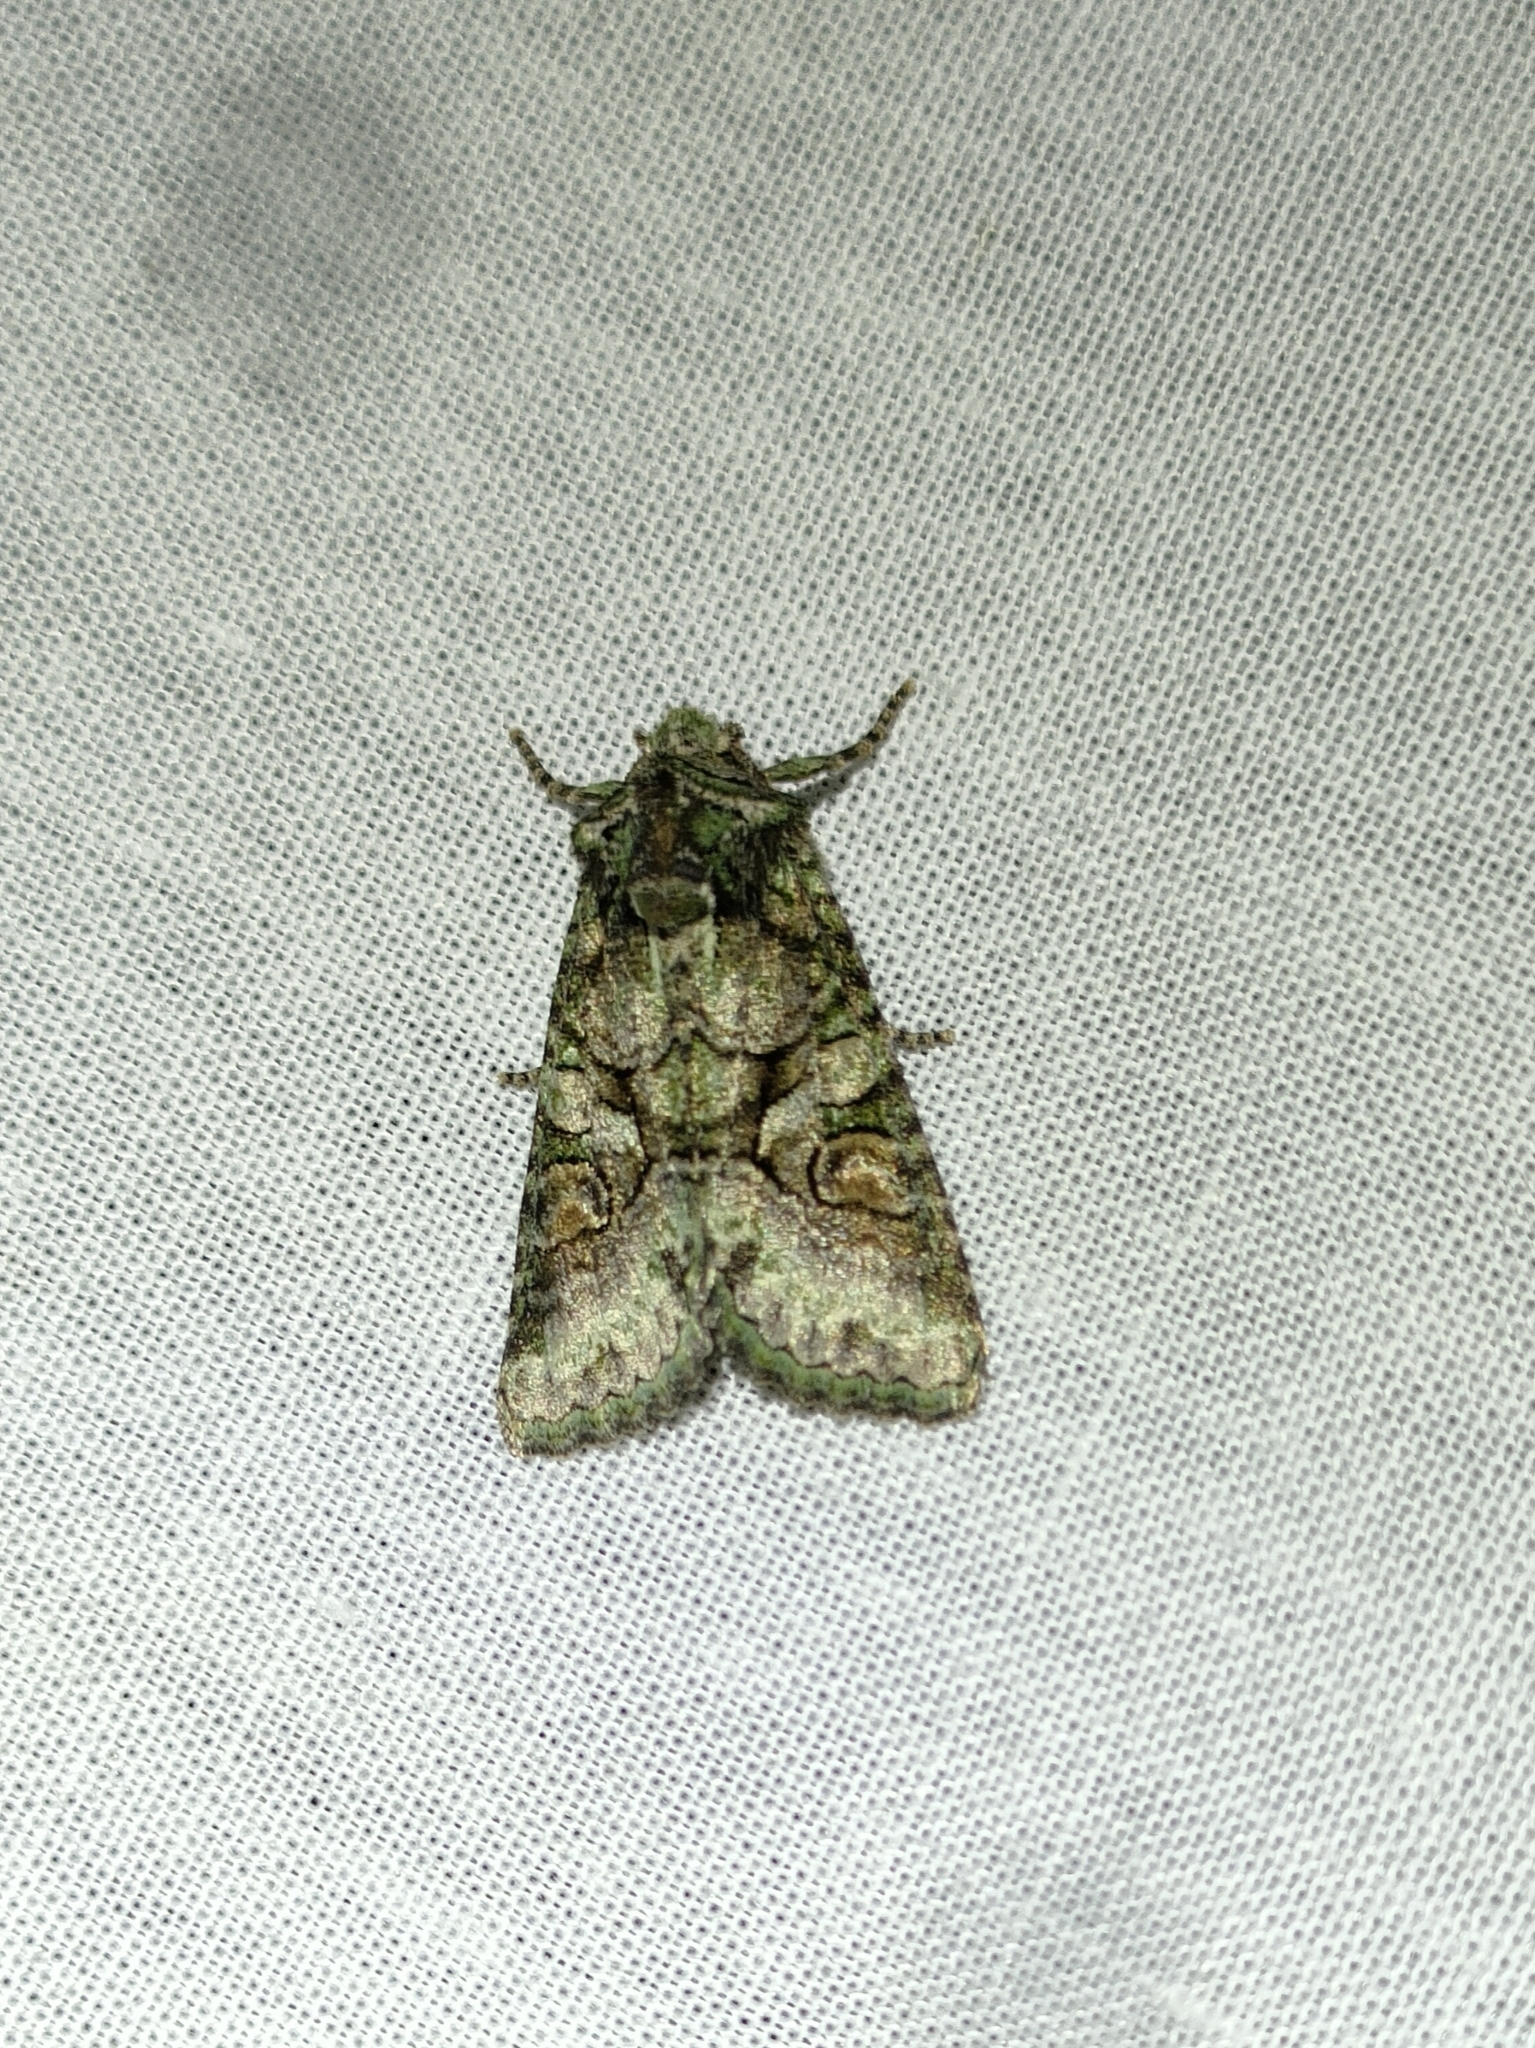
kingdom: Animalia
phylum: Arthropoda
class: Insecta
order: Lepidoptera
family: Noctuidae
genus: Dryobotodes
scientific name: Dryobotodes roboris
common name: Southern brindled green
